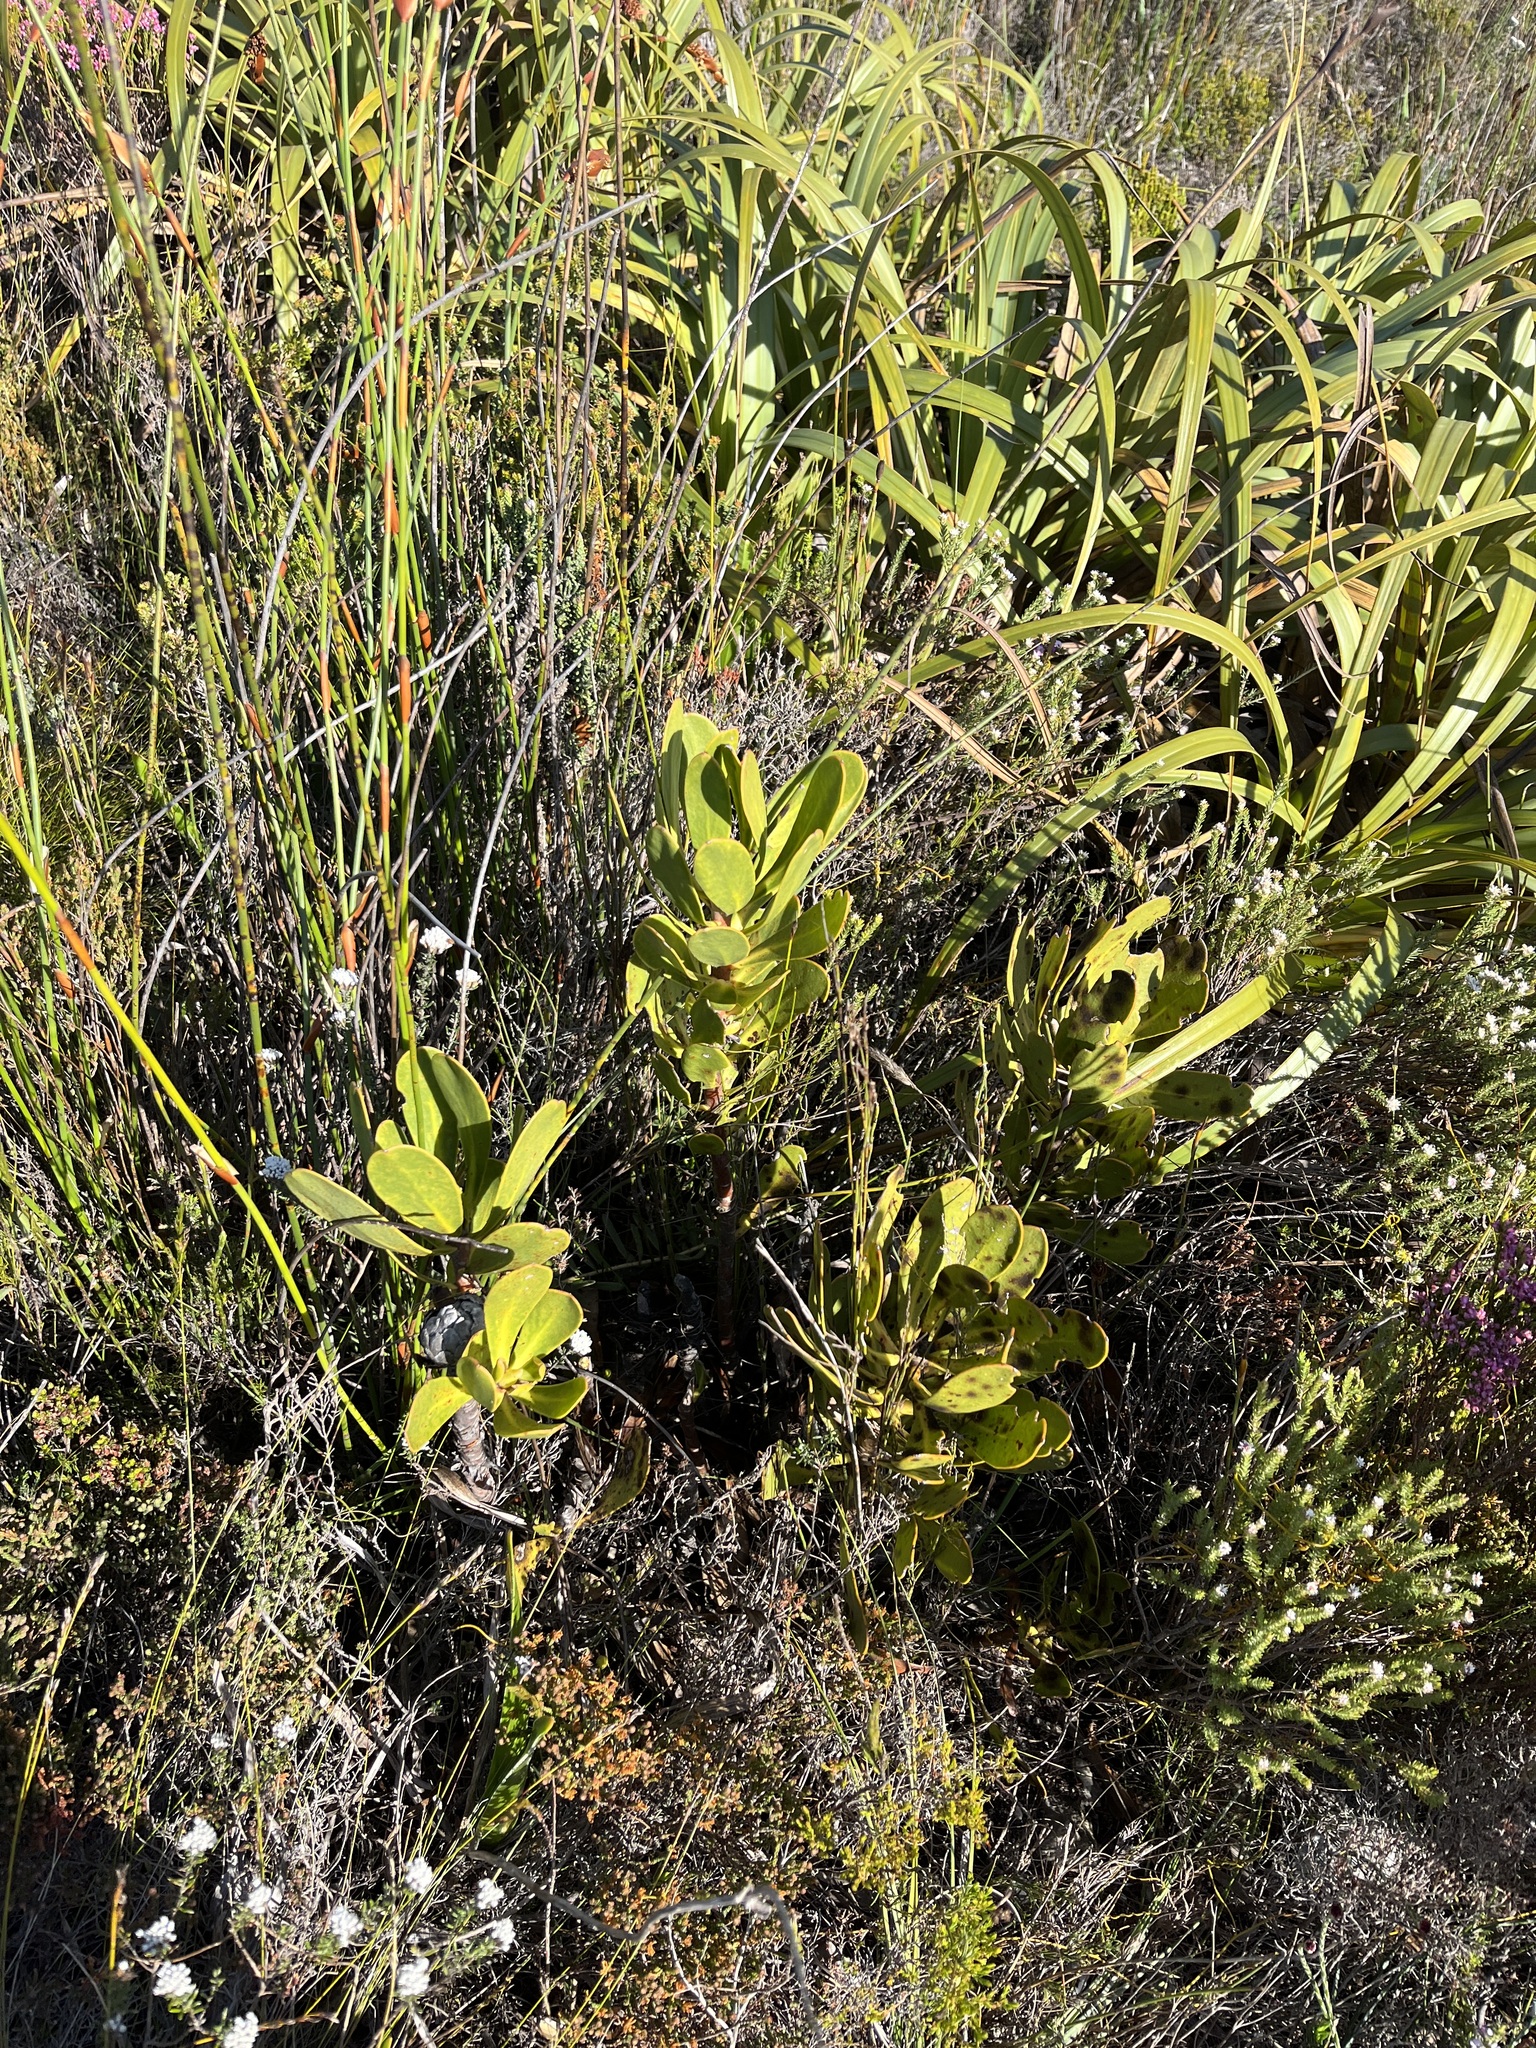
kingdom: Plantae
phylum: Tracheophyta
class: Magnoliopsida
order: Proteales
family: Proteaceae
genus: Protea
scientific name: Protea speciosa
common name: Brown-beard sugarbush
